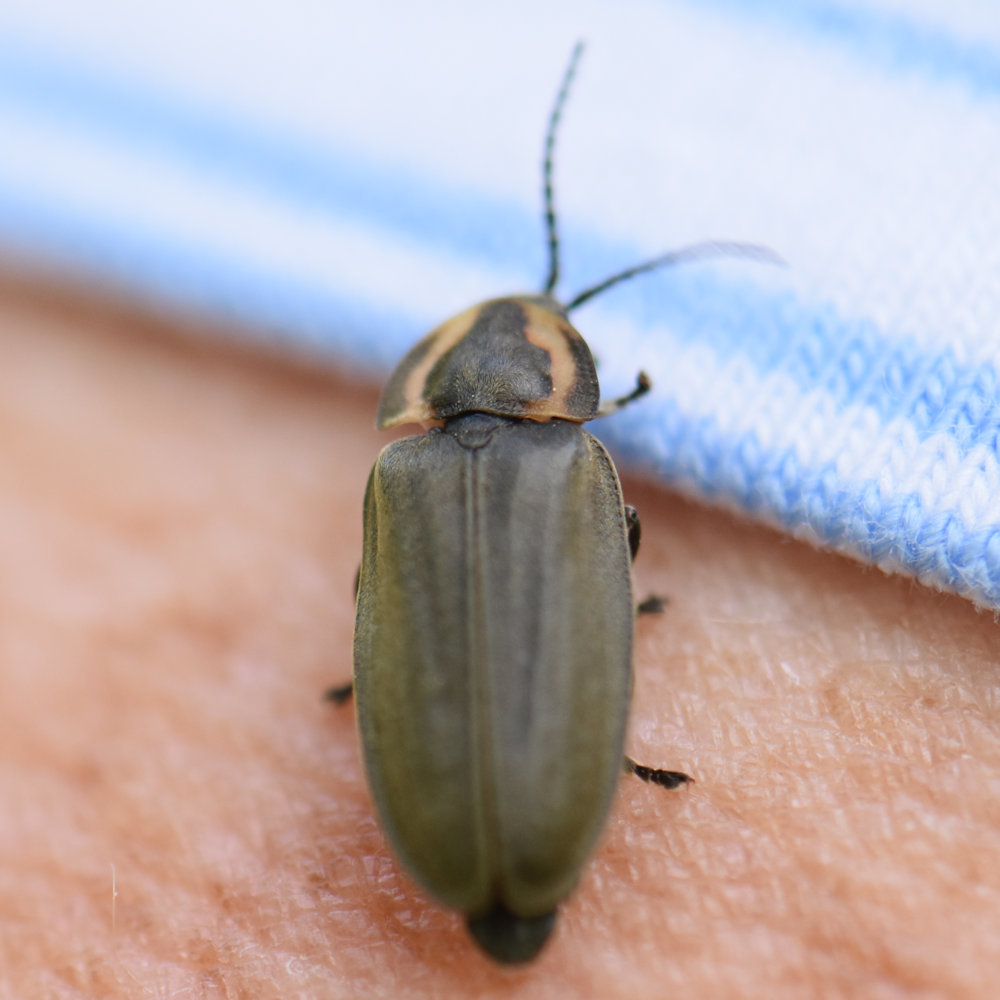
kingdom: Animalia
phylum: Arthropoda
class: Insecta
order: Coleoptera
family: Lampyridae
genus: Photinus
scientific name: Photinus corrusca
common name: Winter firefly
